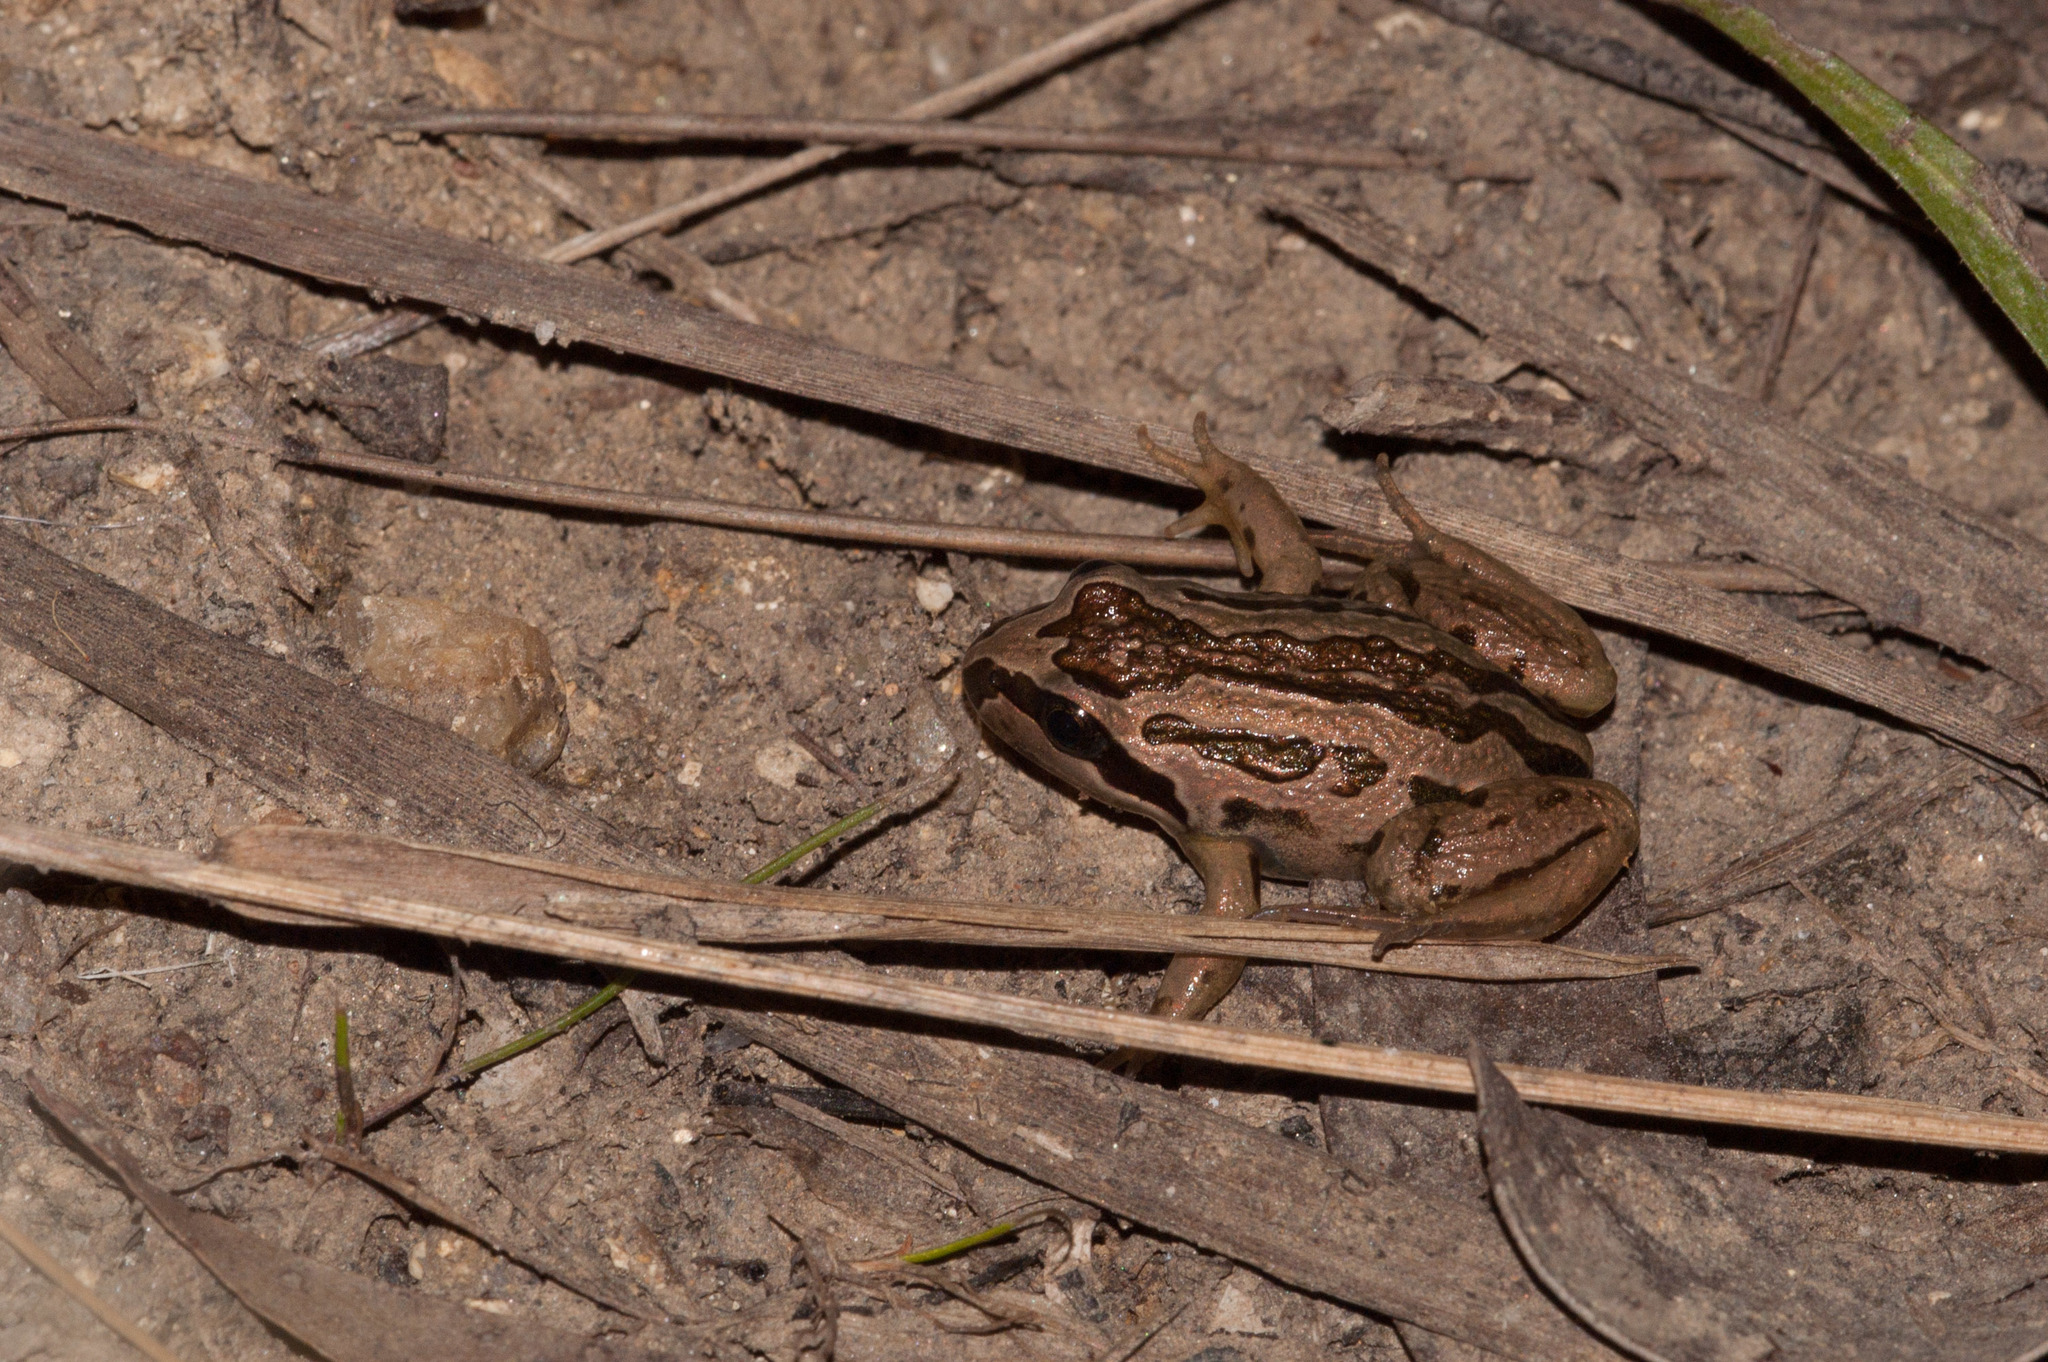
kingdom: Animalia
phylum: Chordata
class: Amphibia
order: Anura
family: Limnodynastidae
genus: Limnodynastes
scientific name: Limnodynastes peronii
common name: Brown frog
